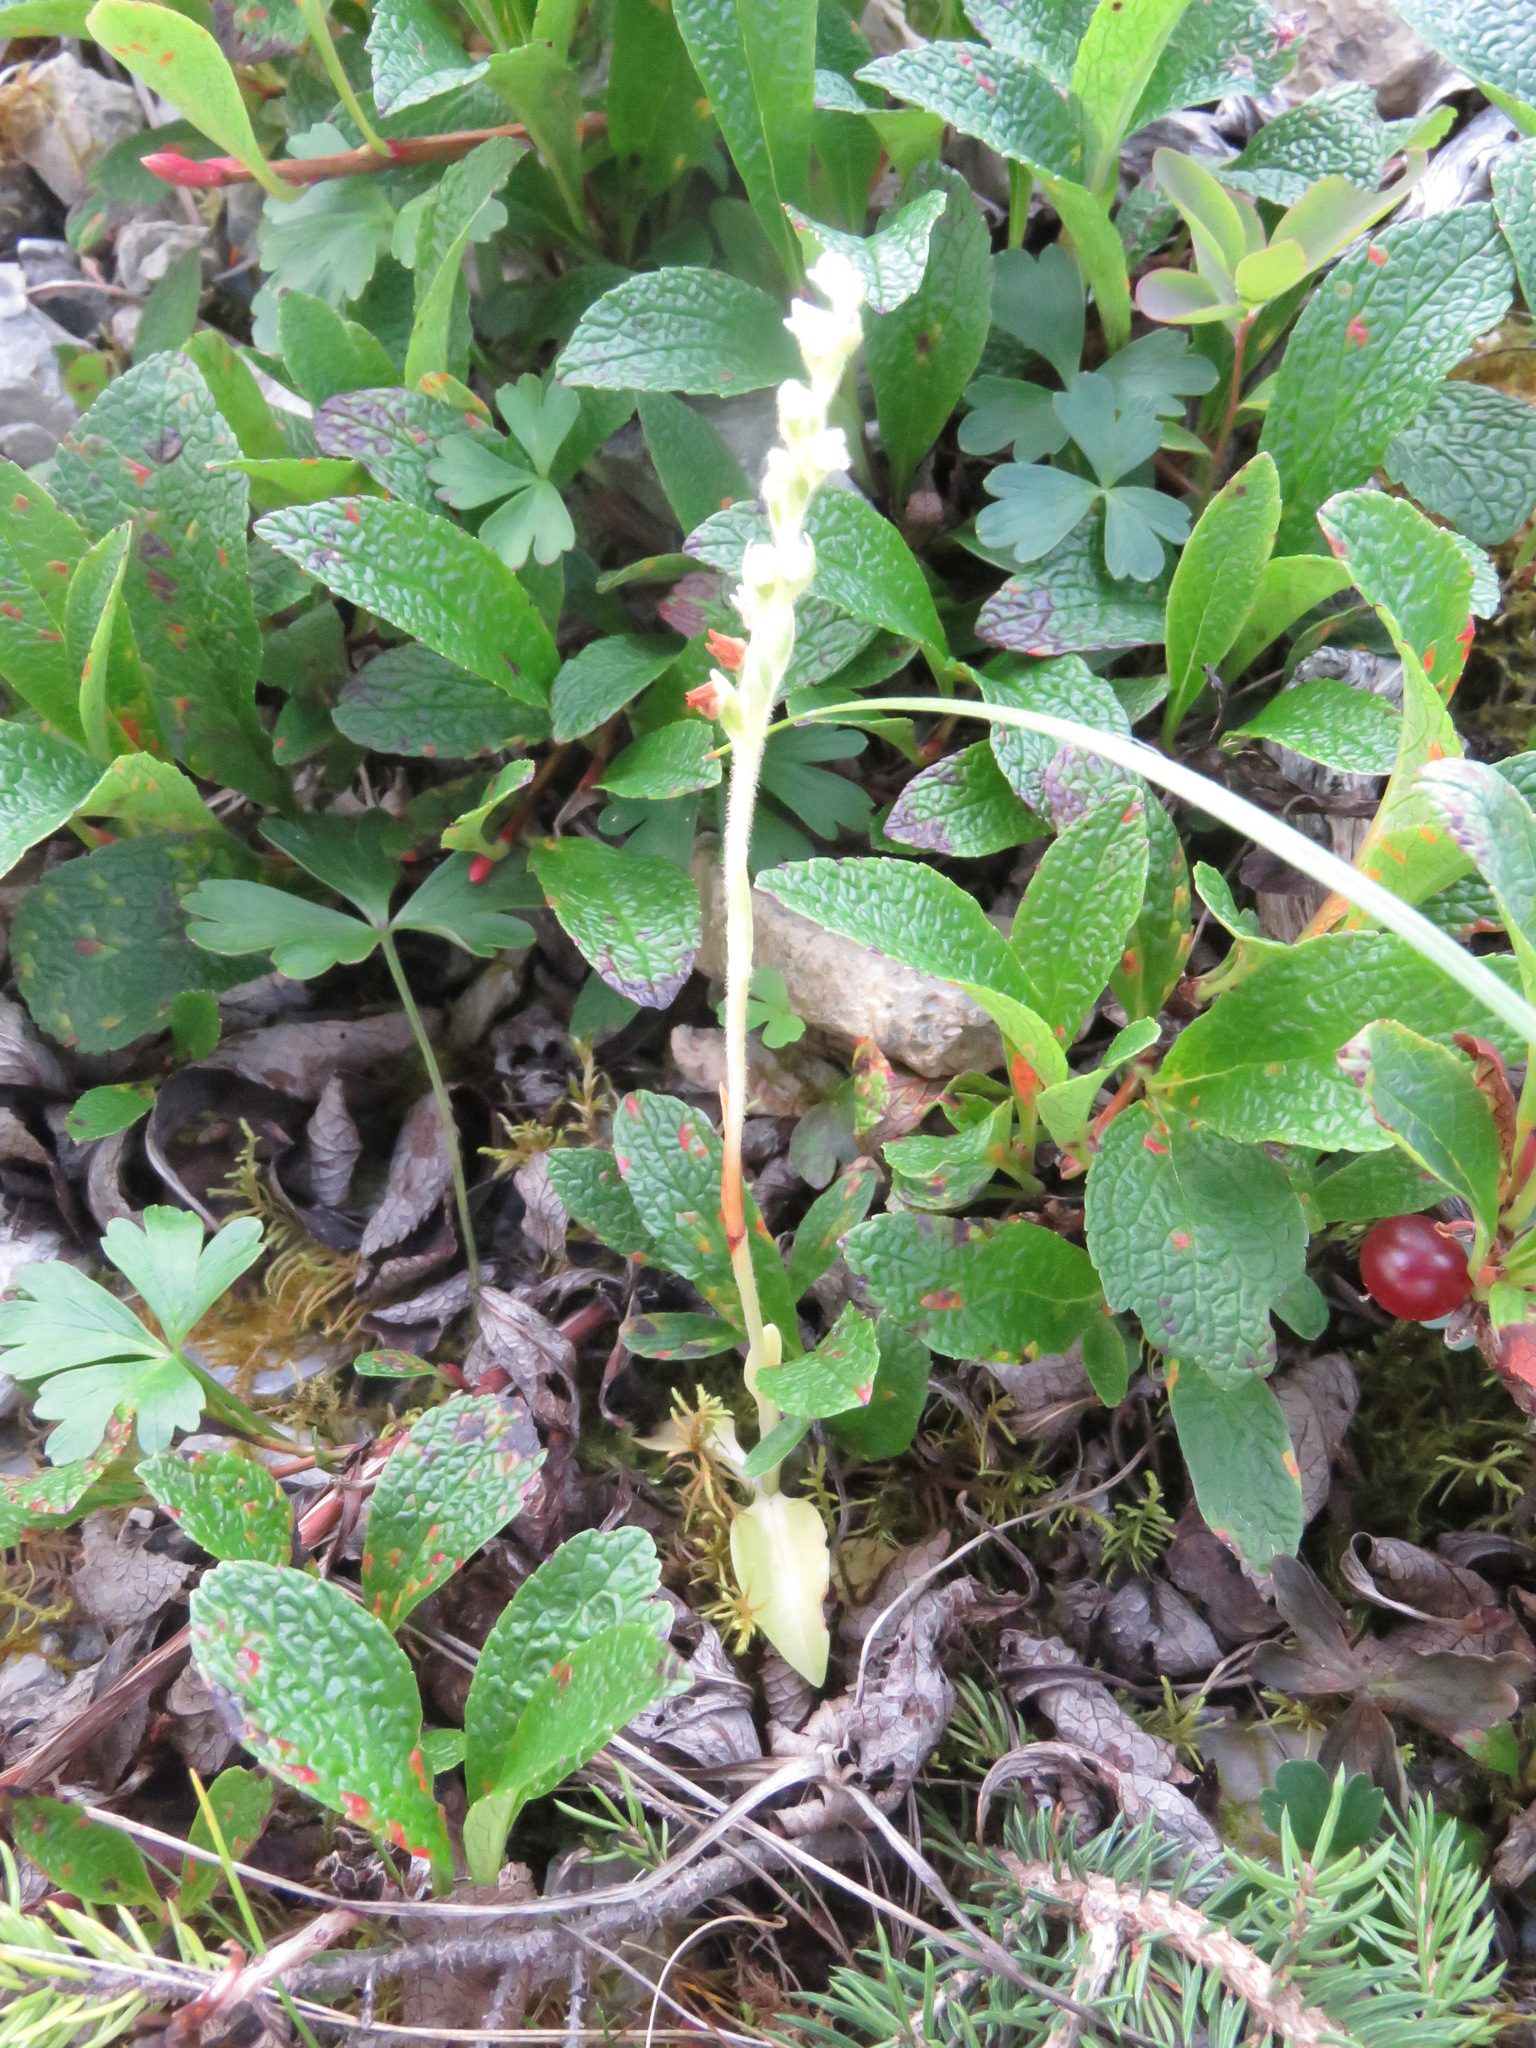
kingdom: Plantae
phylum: Tracheophyta
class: Liliopsida
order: Asparagales
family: Orchidaceae
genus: Goodyera
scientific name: Goodyera repens
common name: Creeping lady's-tresses
